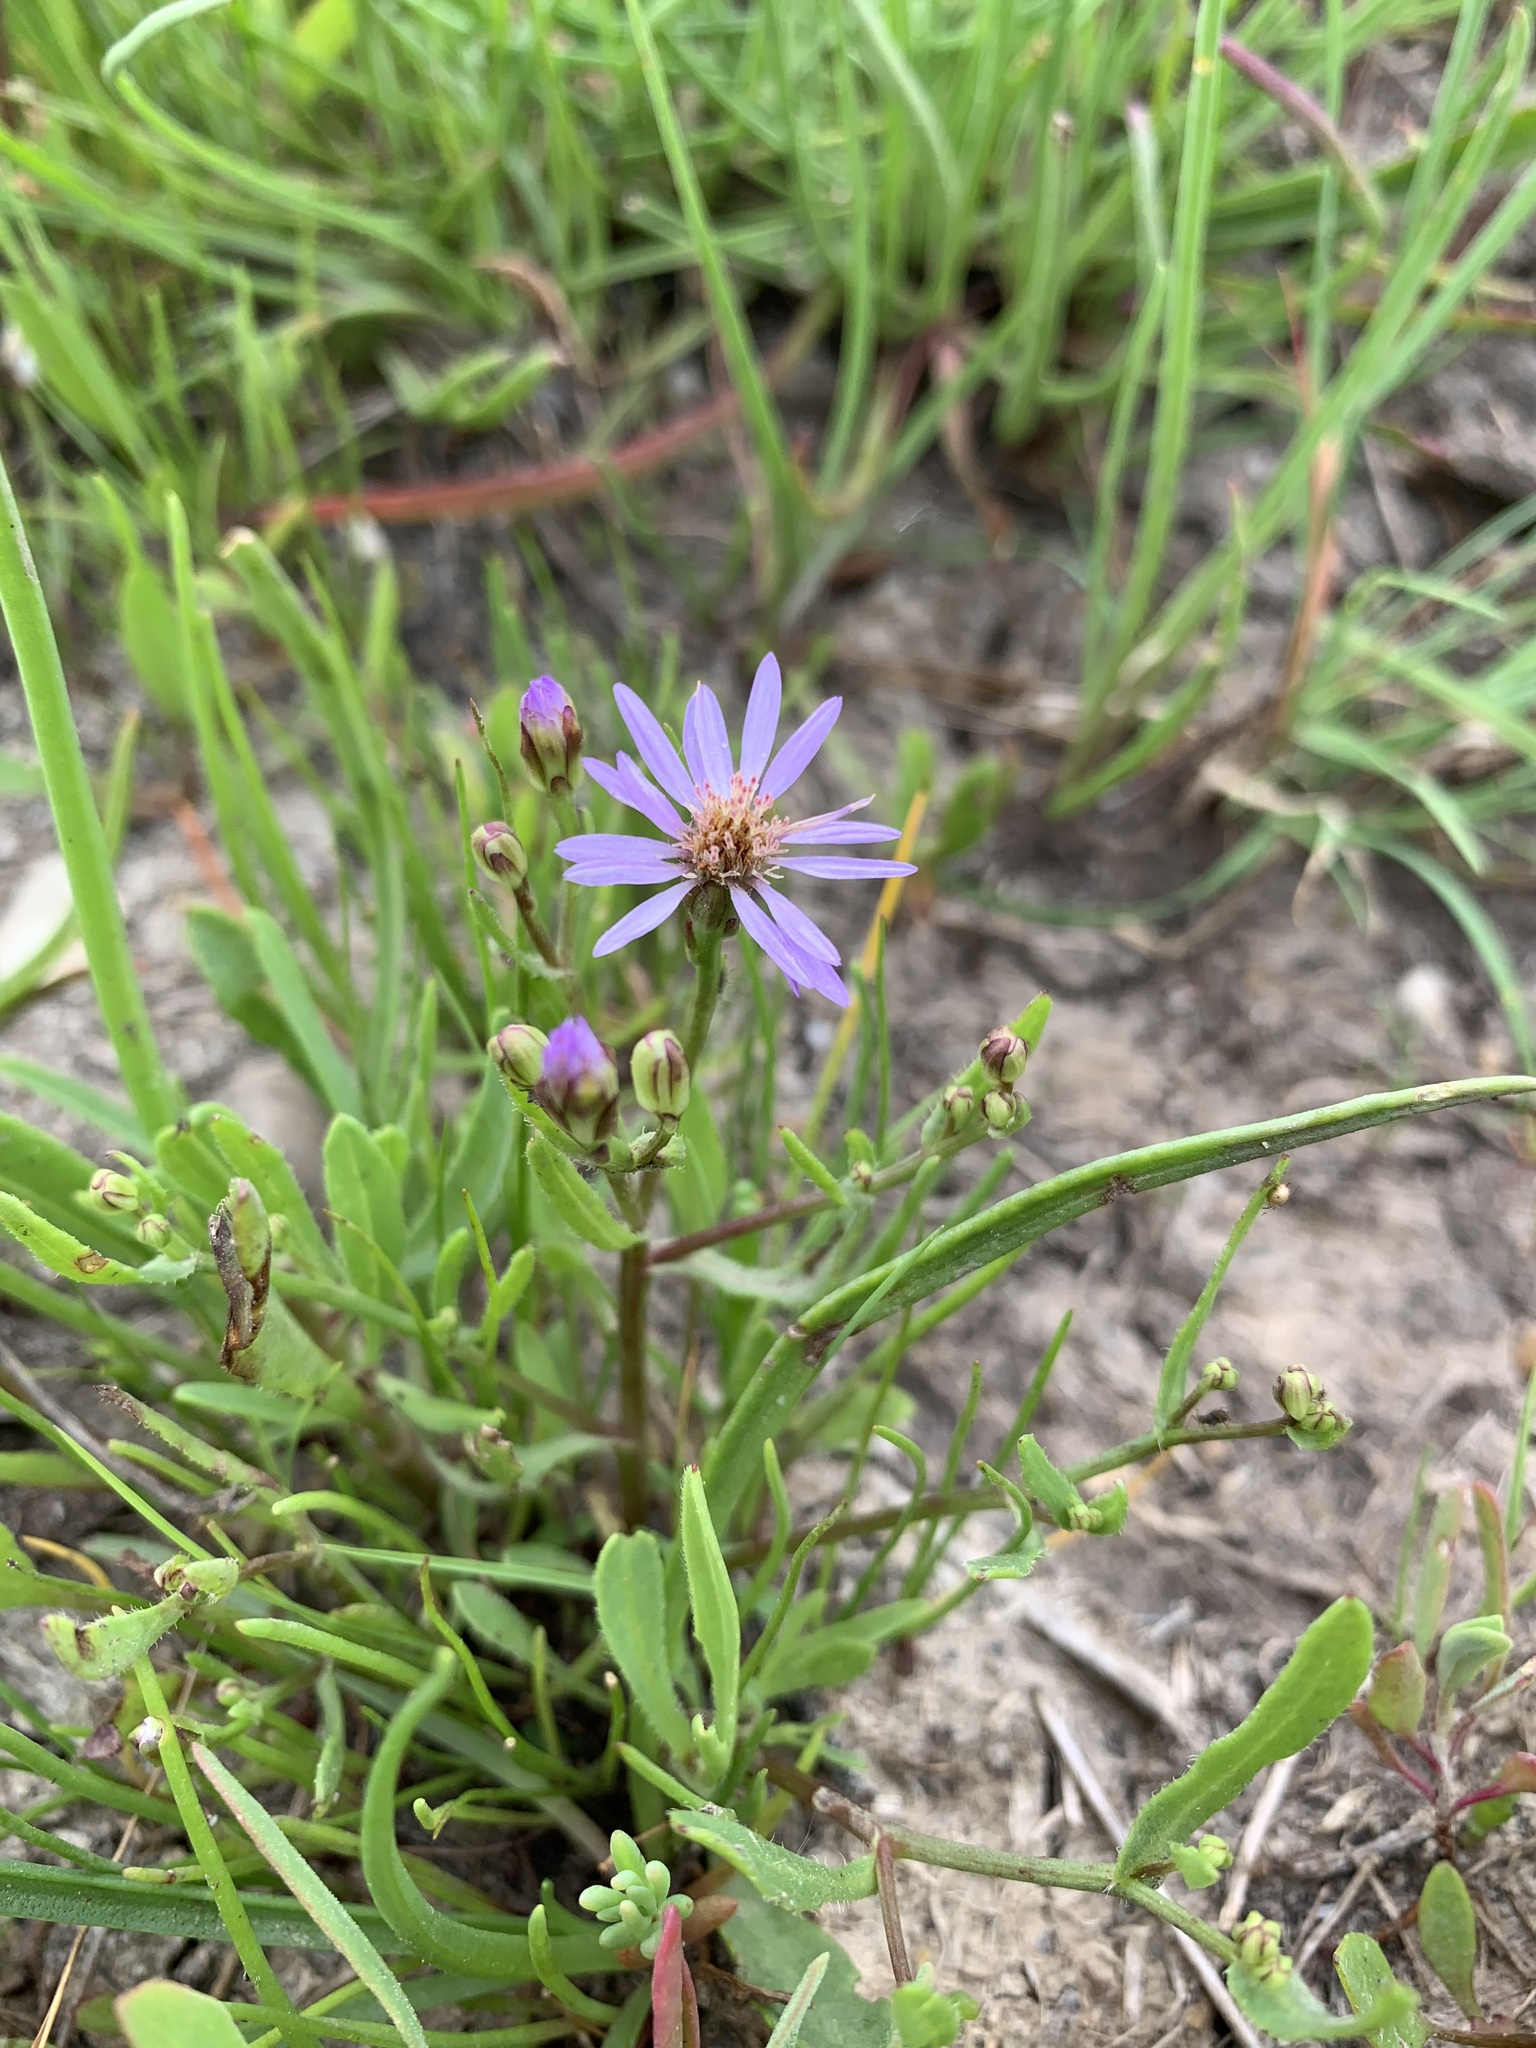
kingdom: Plantae
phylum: Tracheophyta
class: Magnoliopsida
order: Asterales
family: Asteraceae
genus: Tripolium
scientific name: Tripolium pannonicum
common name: Sea aster
